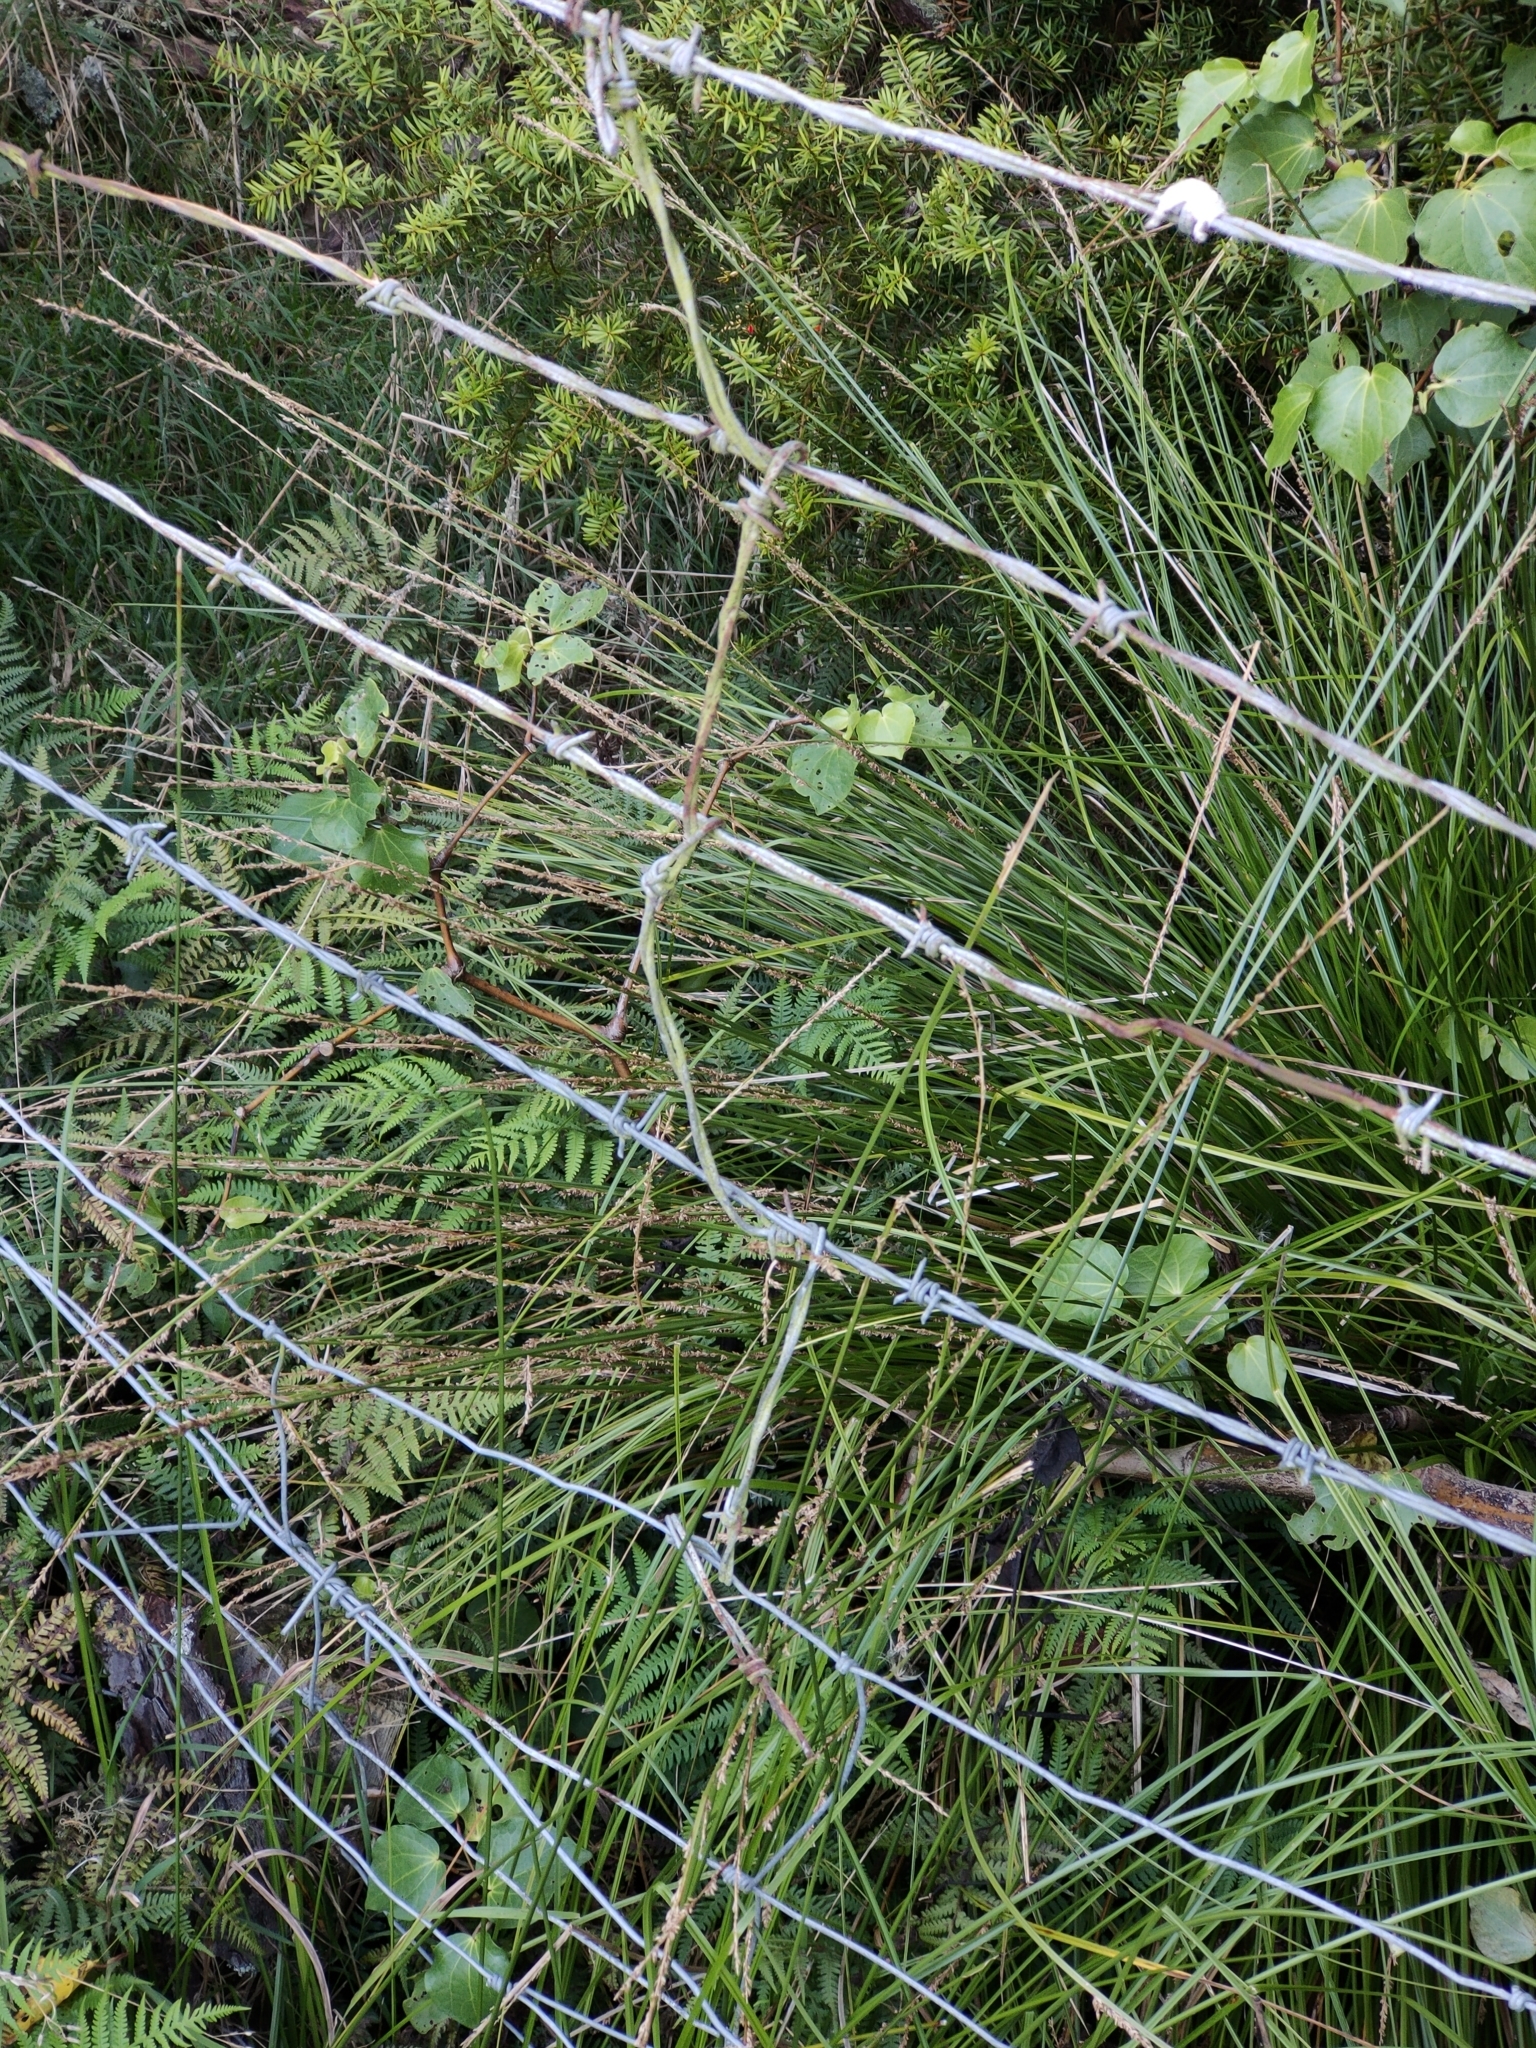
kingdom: Plantae
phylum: Tracheophyta
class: Liliopsida
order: Poales
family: Cyperaceae
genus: Carex
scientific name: Carex virgata
